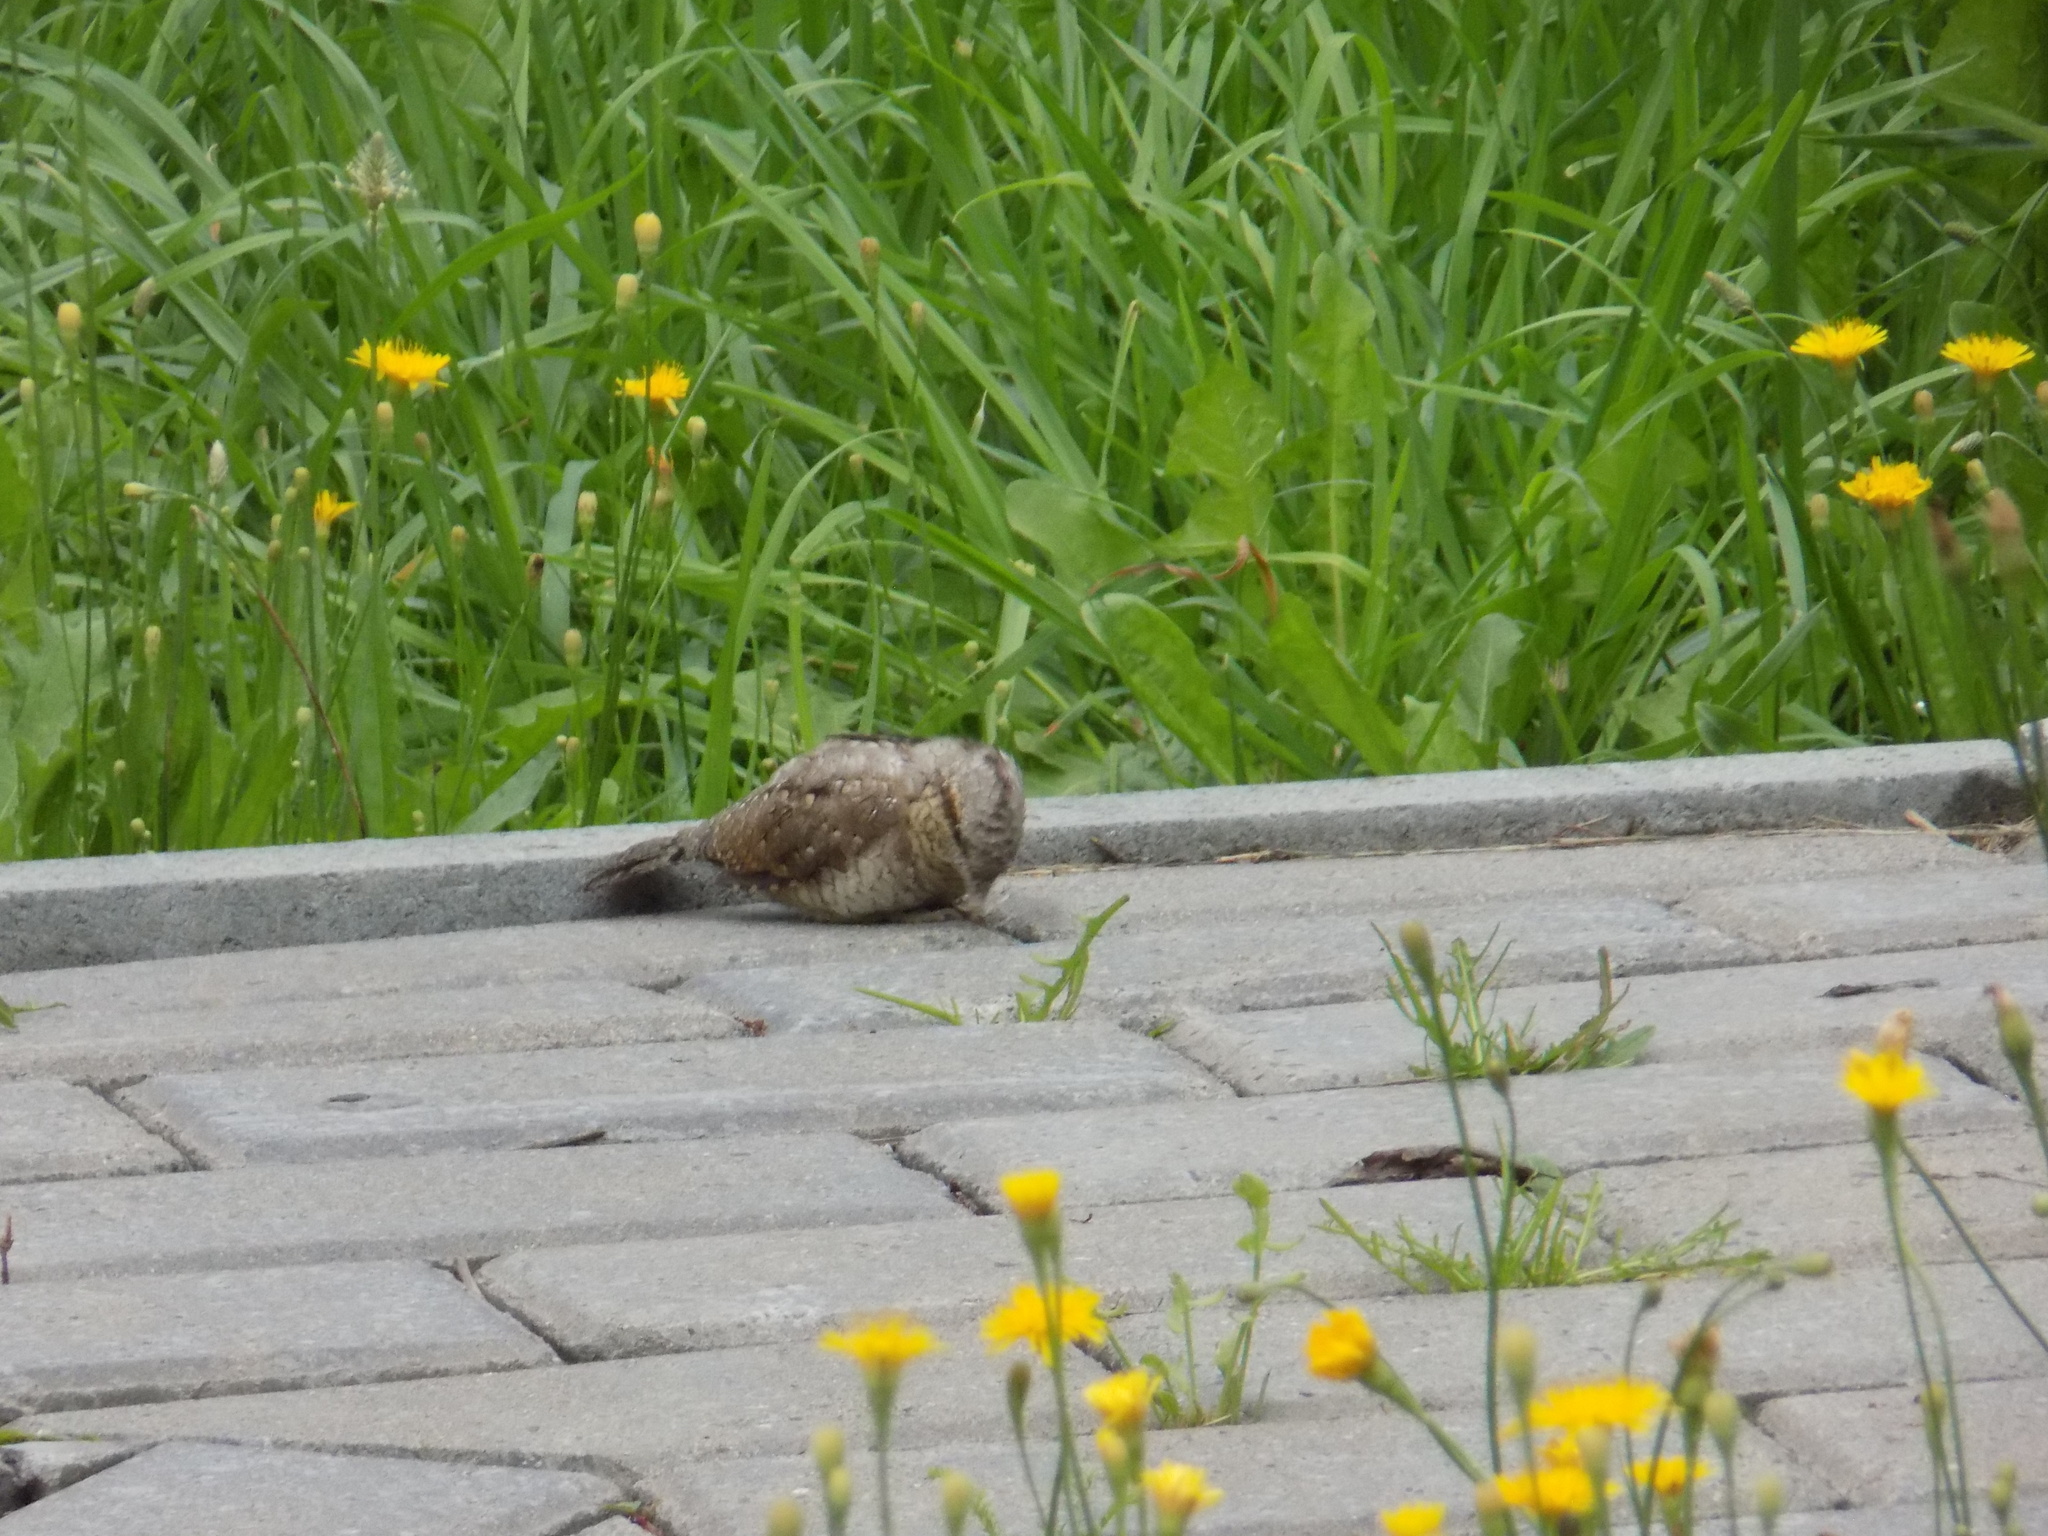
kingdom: Animalia
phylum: Chordata
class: Aves
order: Piciformes
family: Picidae
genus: Jynx
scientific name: Jynx torquilla
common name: Eurasian wryneck
